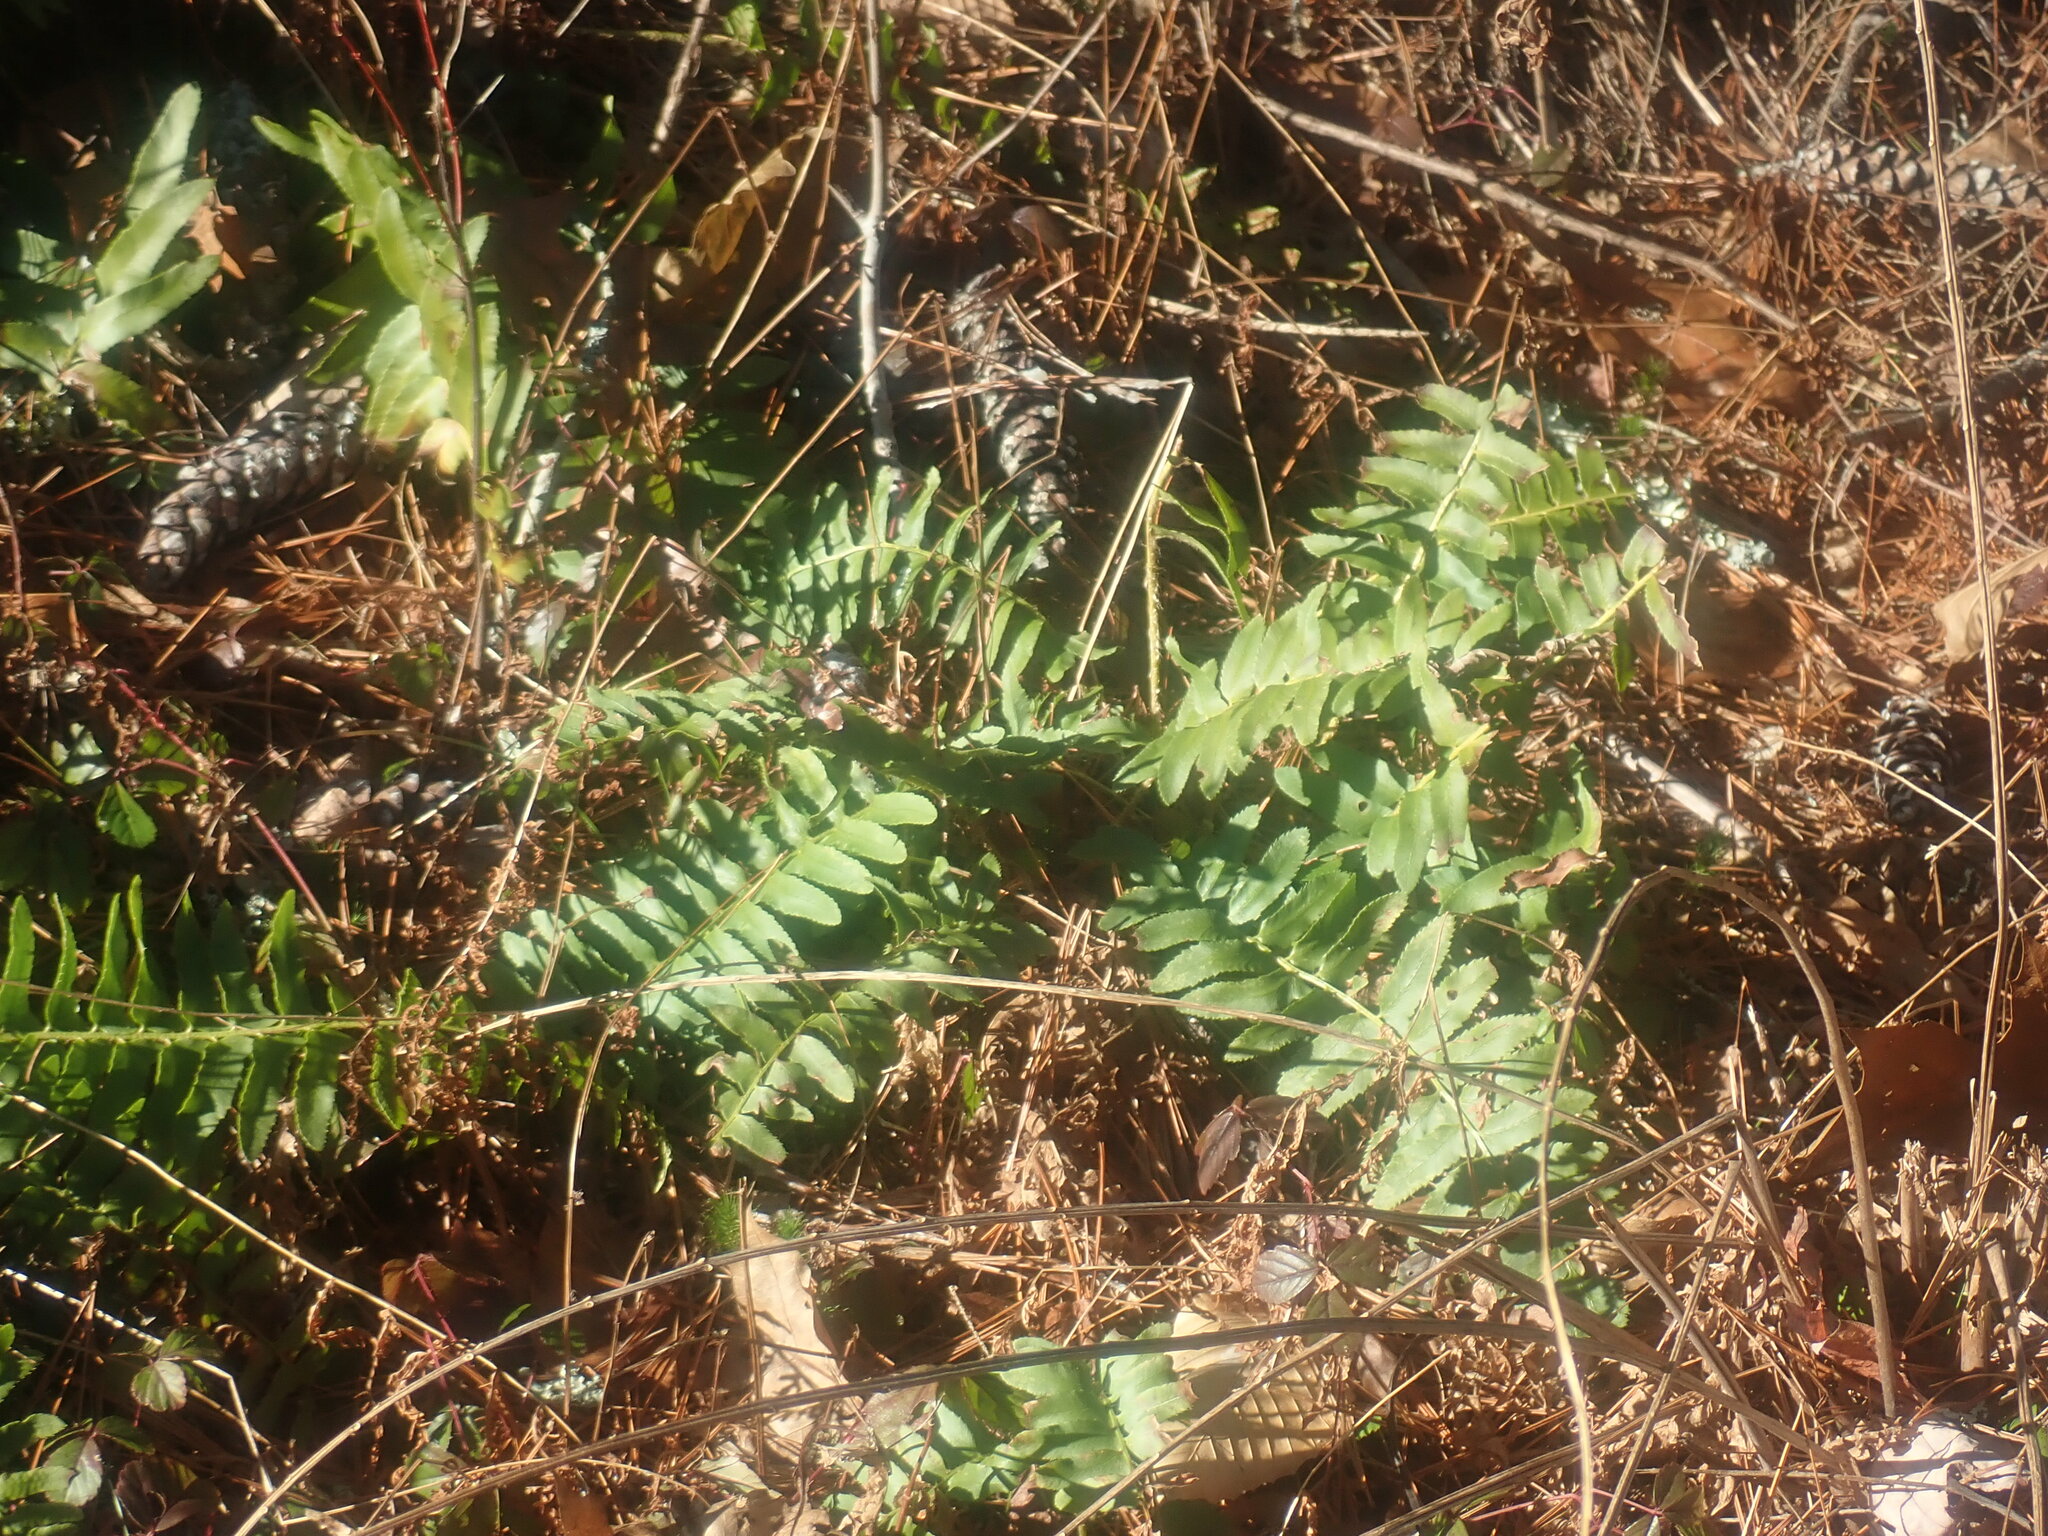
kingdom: Plantae
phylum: Tracheophyta
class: Polypodiopsida
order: Polypodiales
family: Dryopteridaceae
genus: Polystichum
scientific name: Polystichum acrostichoides
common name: Christmas fern
